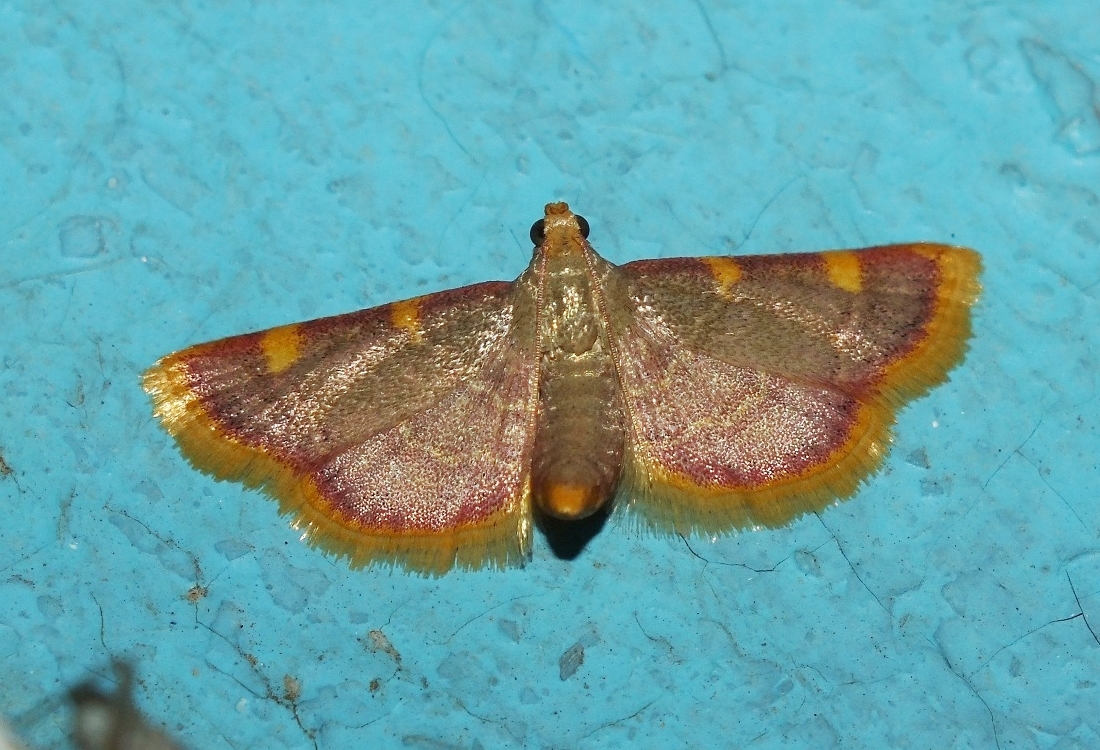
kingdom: Animalia
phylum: Arthropoda
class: Insecta
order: Lepidoptera
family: Pyralidae
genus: Hypsopygia
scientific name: Hypsopygia costalis
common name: Gold triangle
